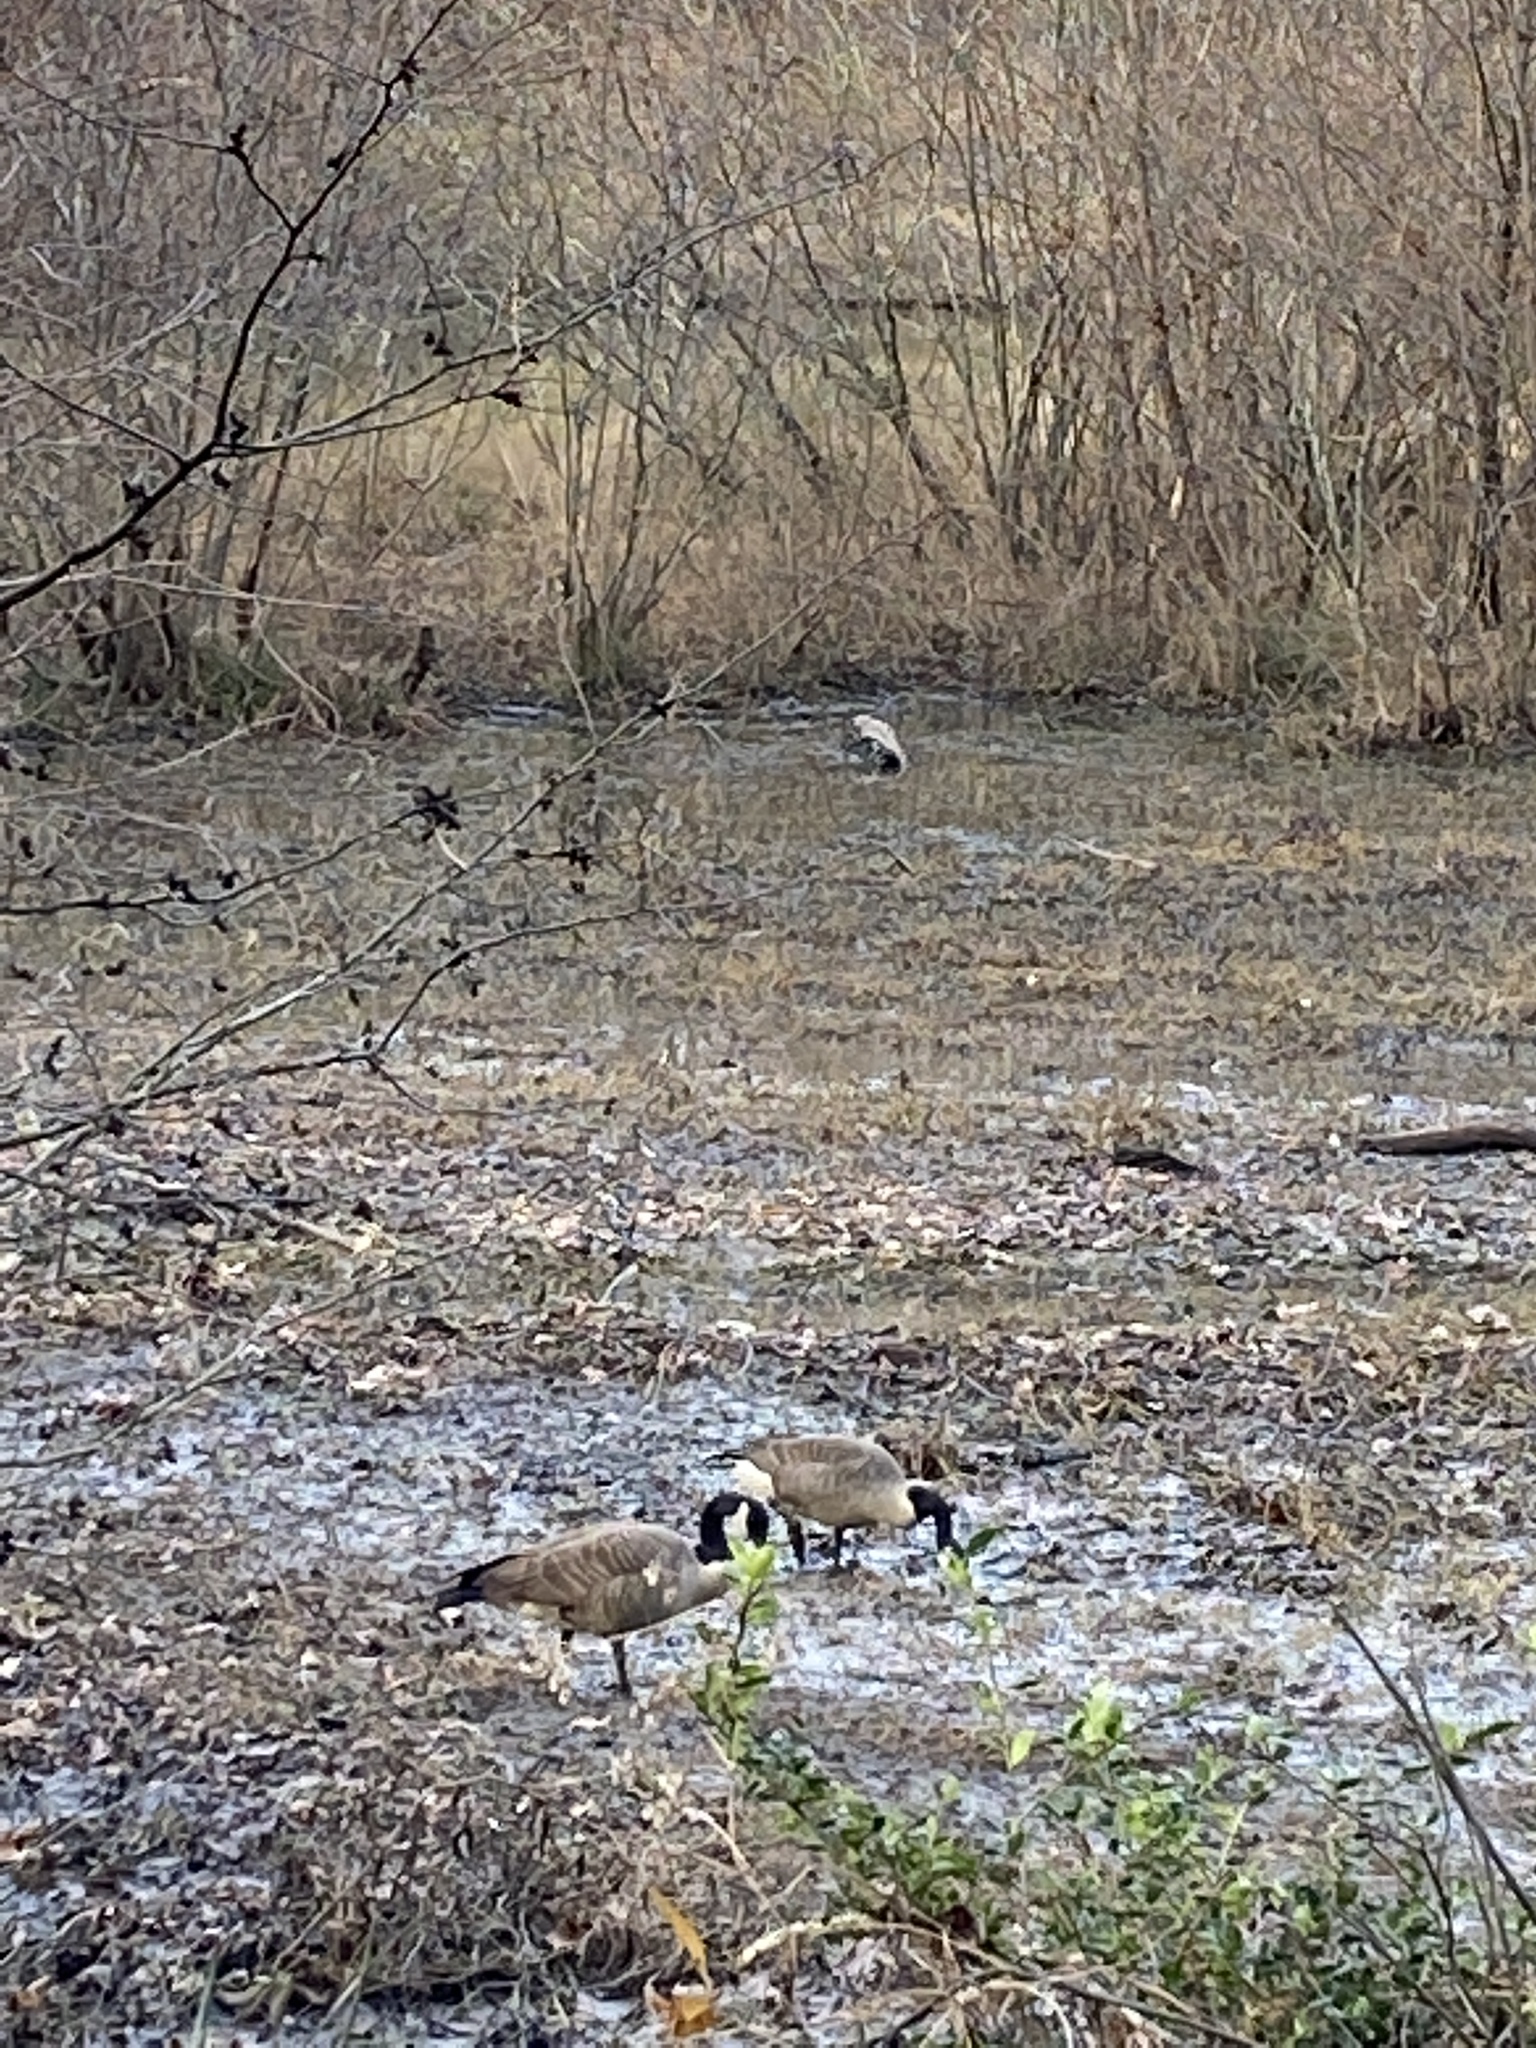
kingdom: Animalia
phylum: Chordata
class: Aves
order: Anseriformes
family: Anatidae
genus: Branta
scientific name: Branta canadensis
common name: Canada goose
